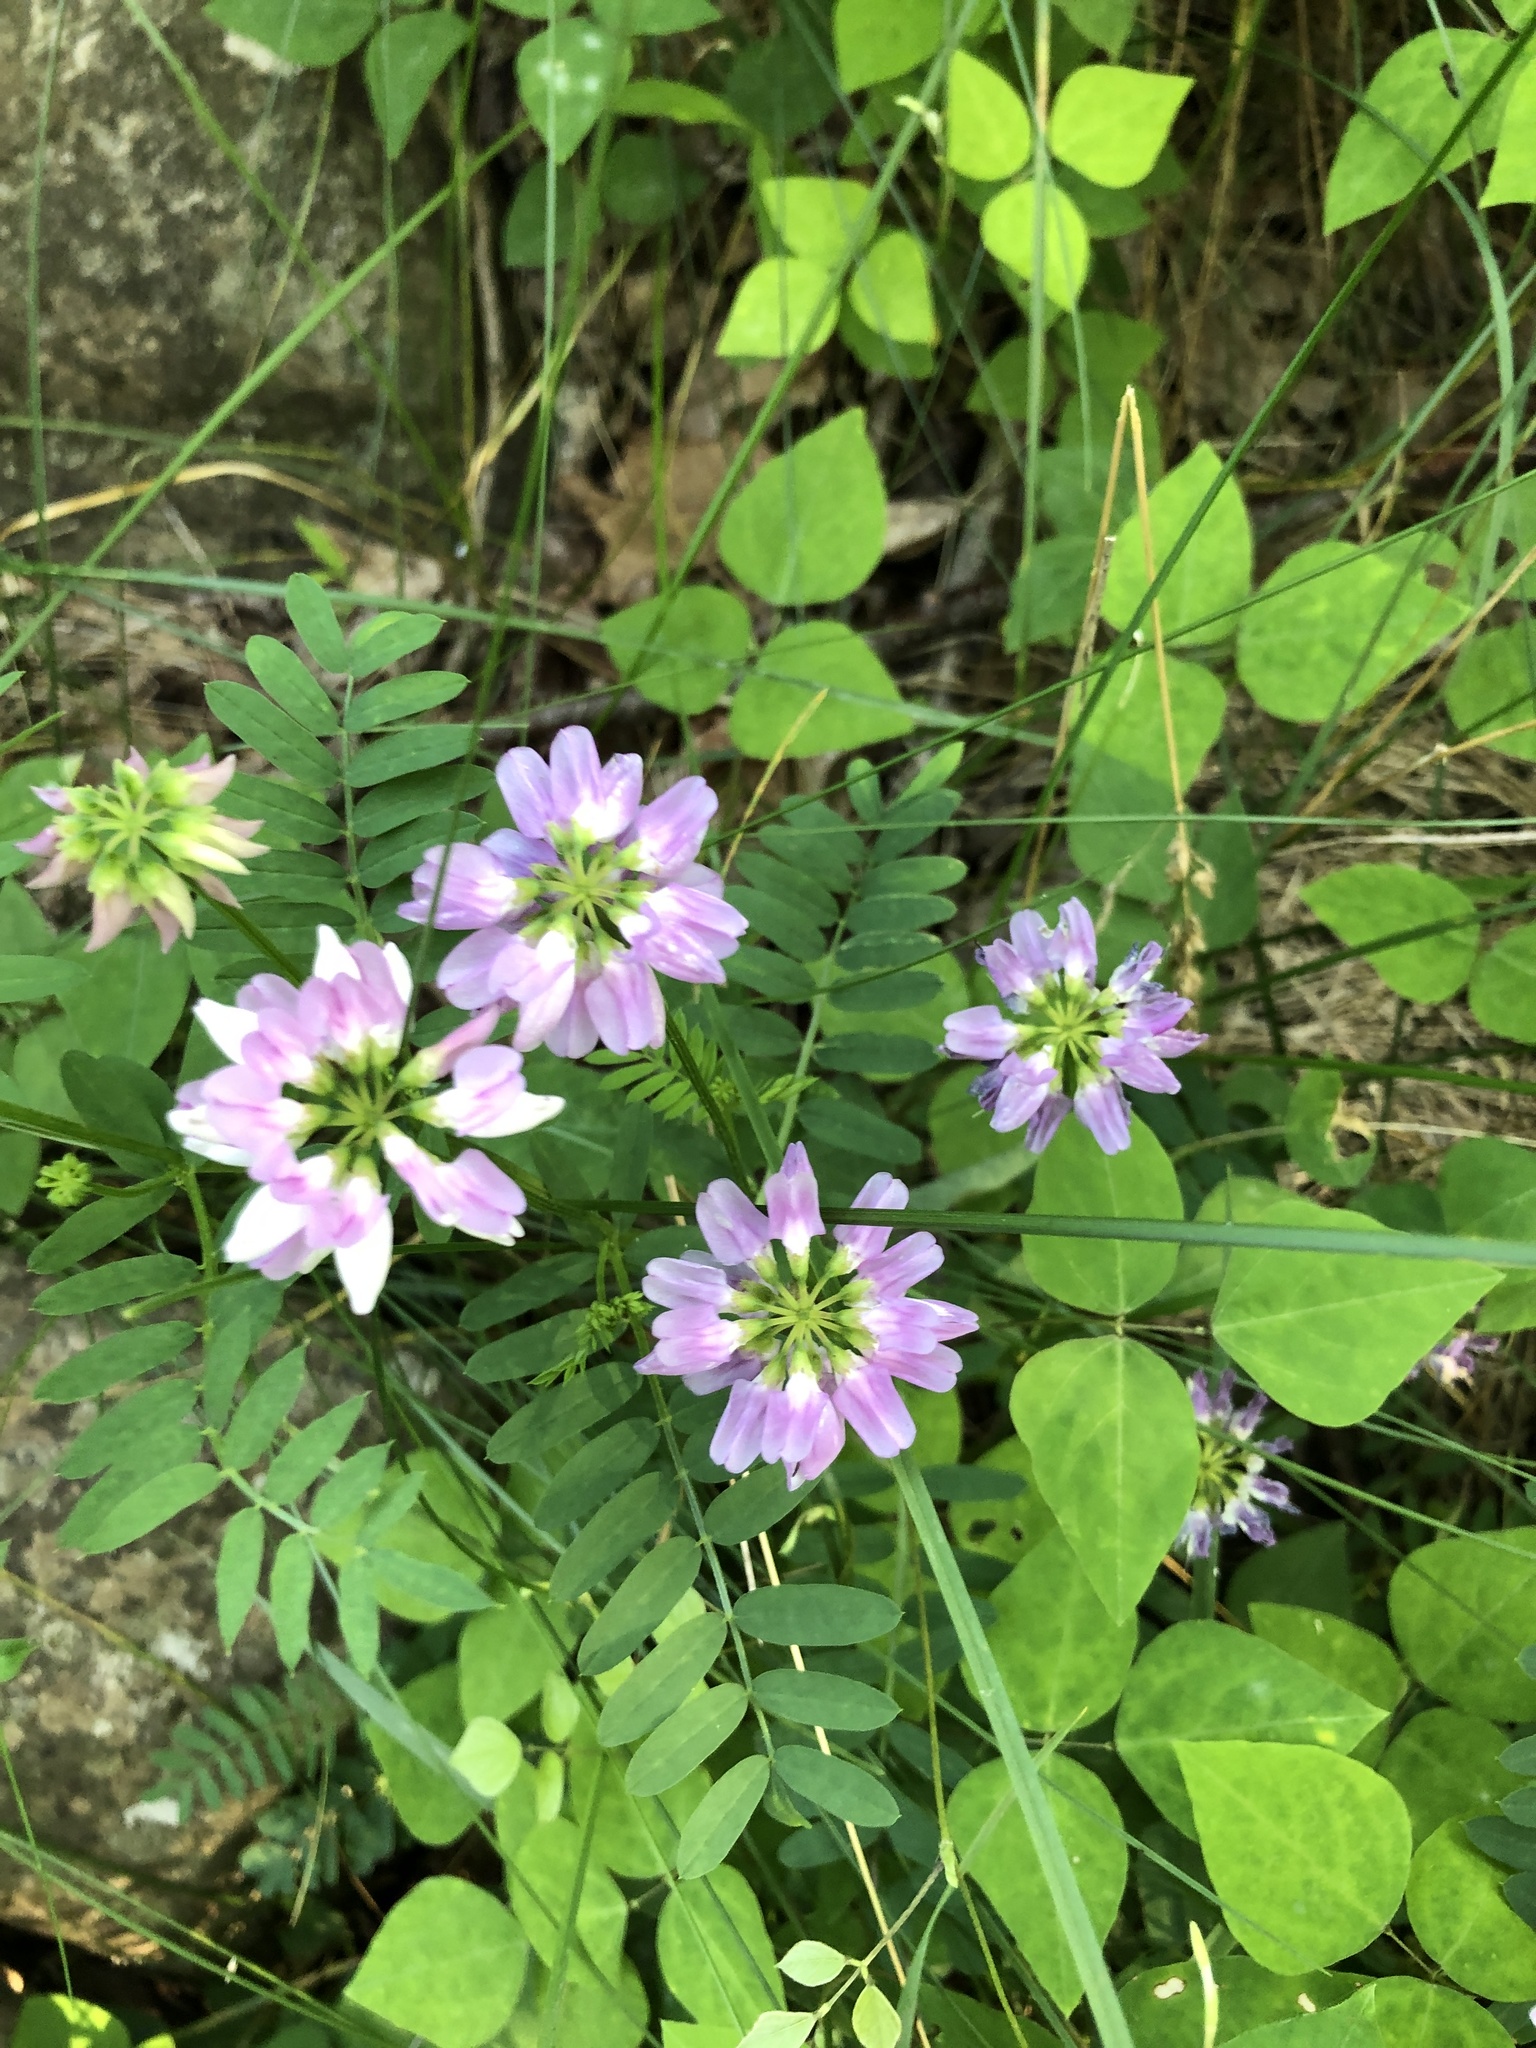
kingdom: Plantae
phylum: Tracheophyta
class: Magnoliopsida
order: Fabales
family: Fabaceae
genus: Coronilla
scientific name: Coronilla varia
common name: Crownvetch
